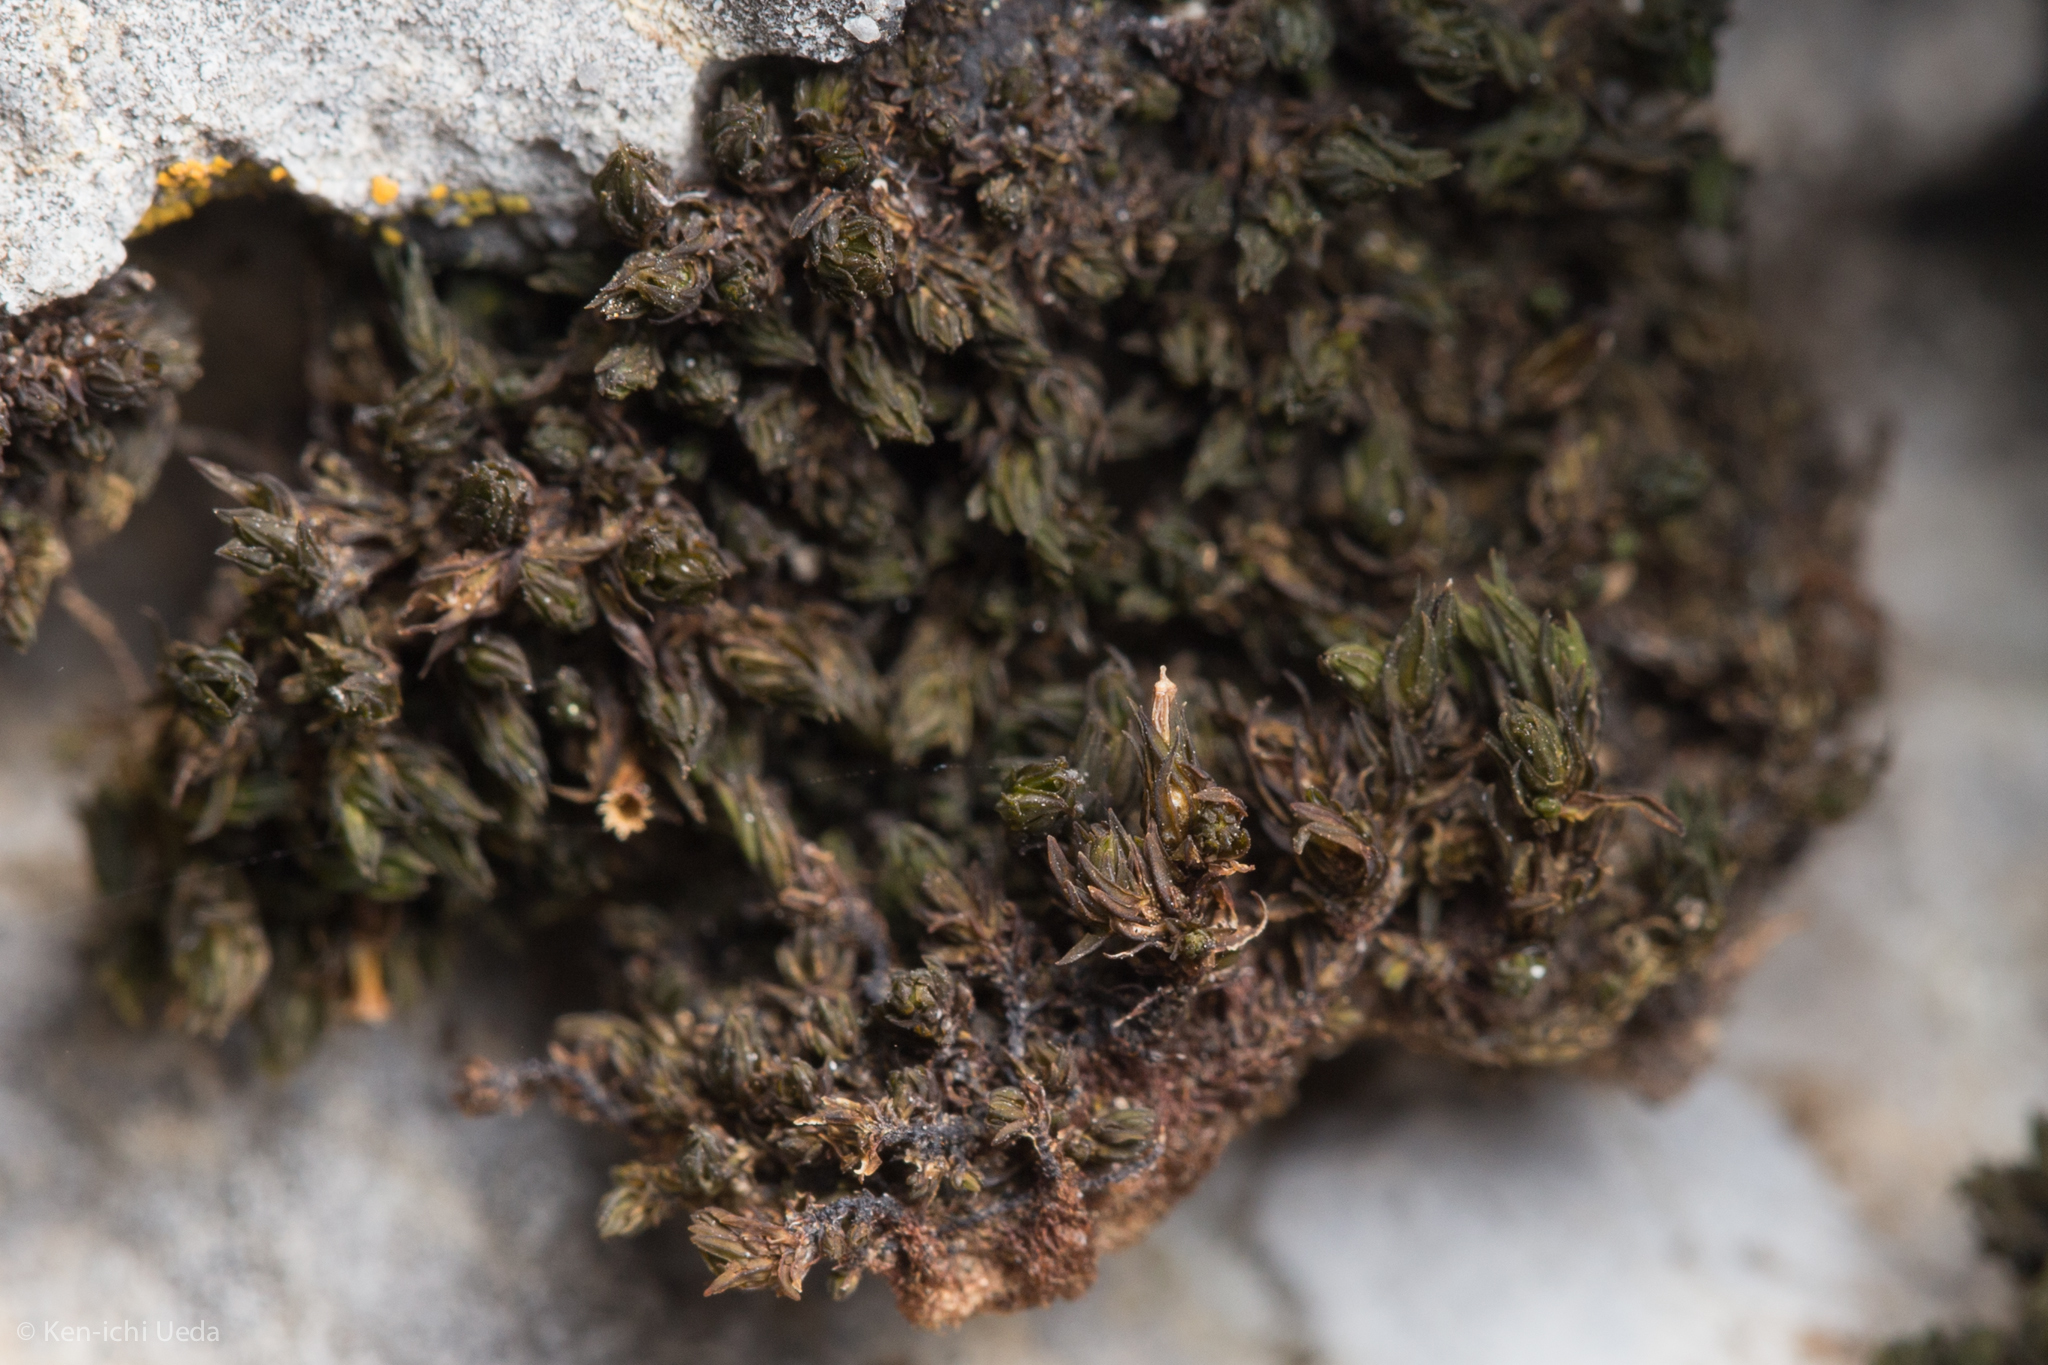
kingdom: Plantae
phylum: Bryophyta
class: Bryopsida
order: Orthotrichales
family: Orthotrichaceae
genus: Orthotrichum
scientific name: Orthotrichum shevockii
